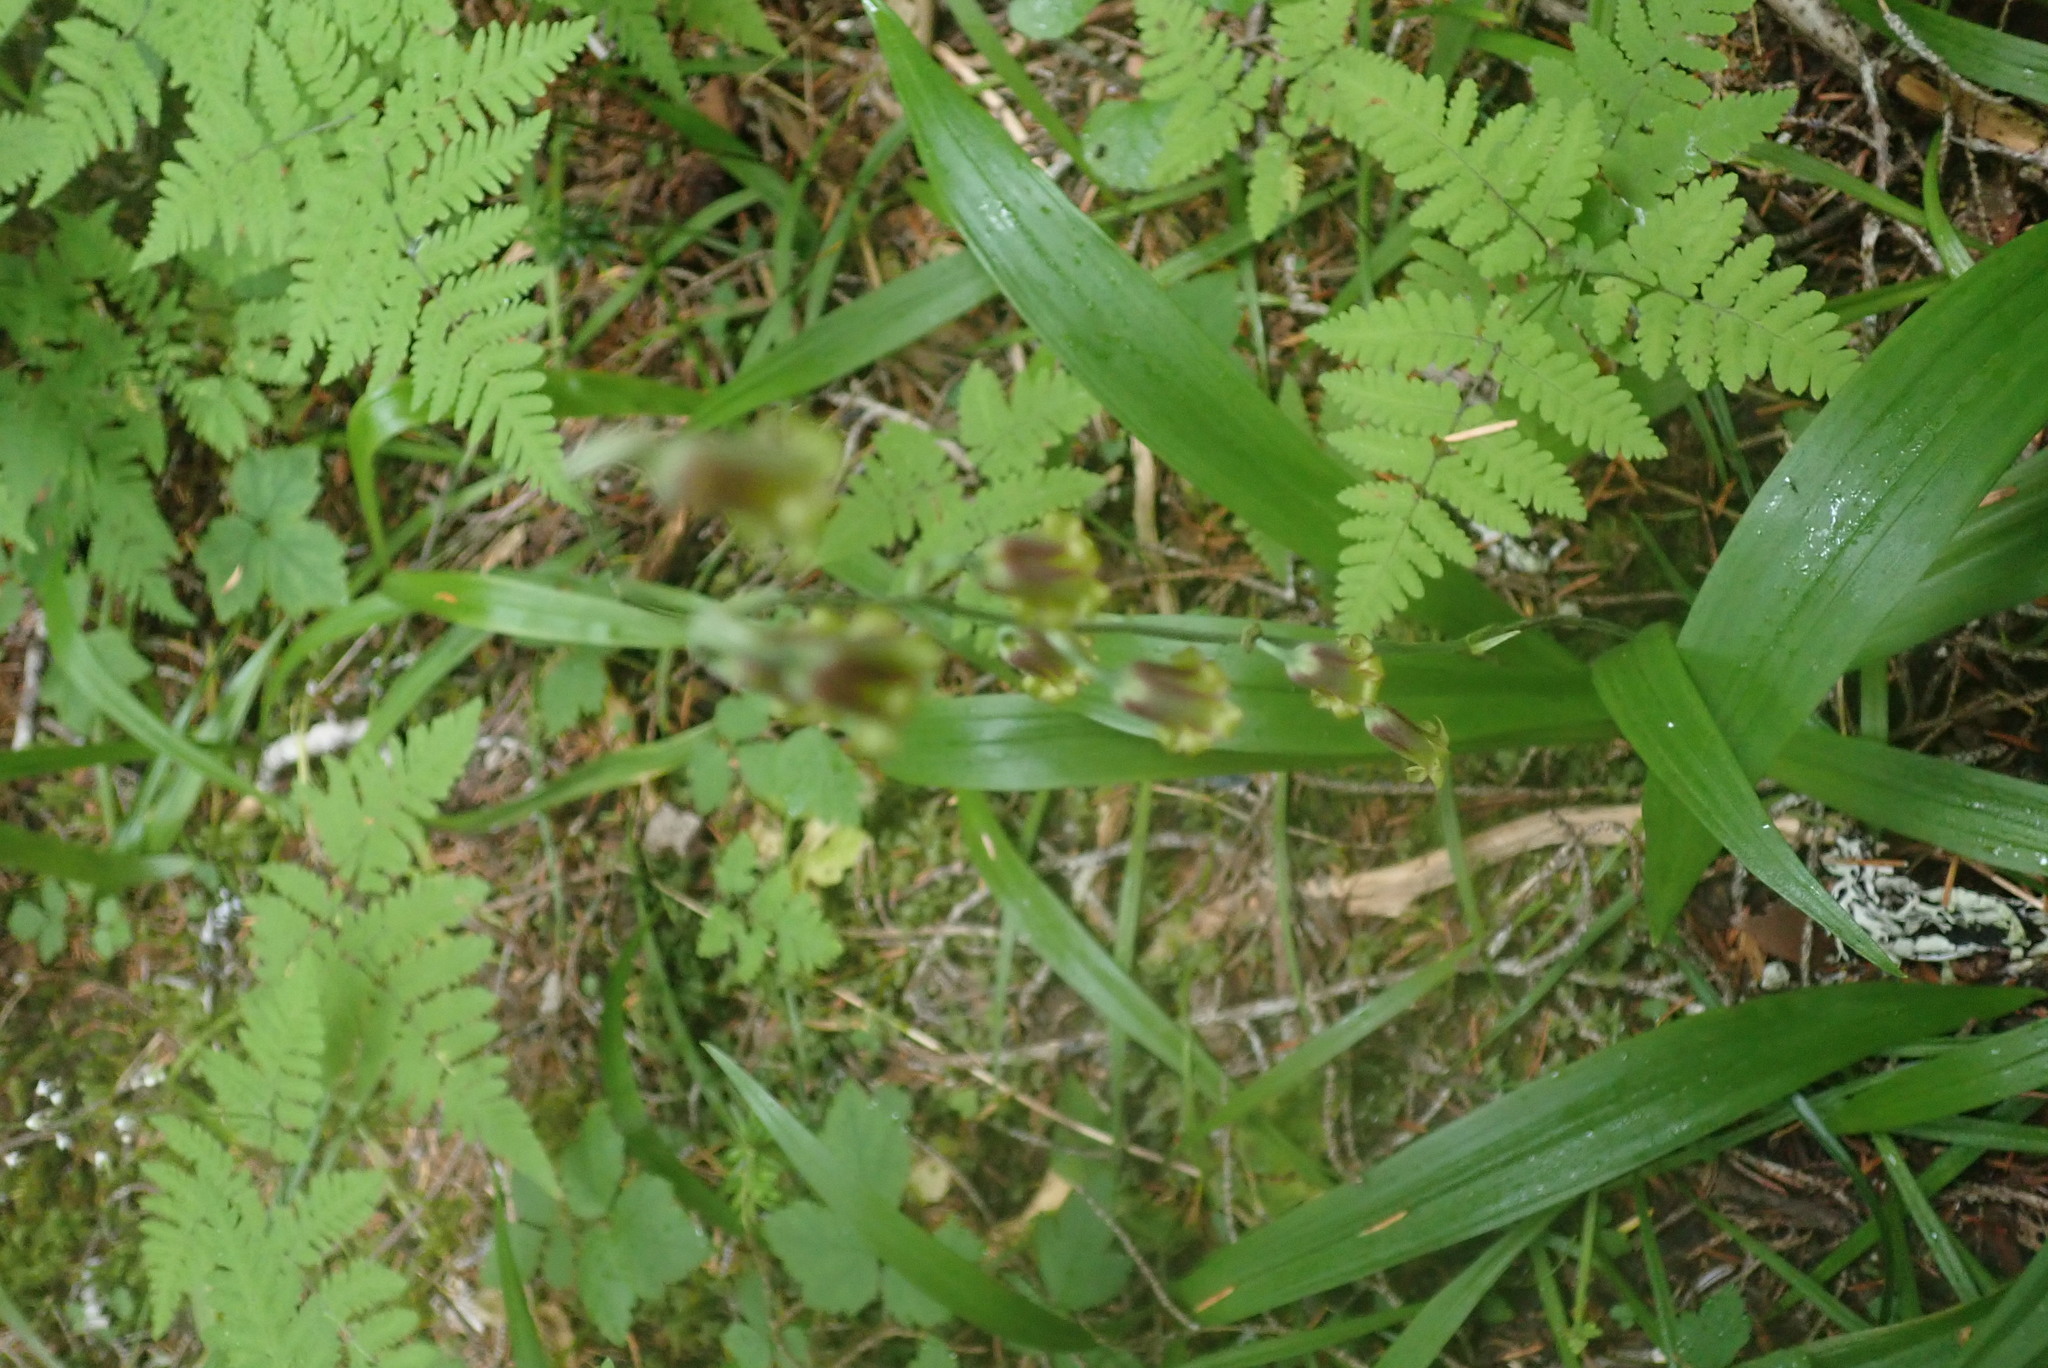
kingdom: Plantae
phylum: Tracheophyta
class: Liliopsida
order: Liliales
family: Melanthiaceae
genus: Anticlea
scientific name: Anticlea occidentalis
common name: Bronze-bells
